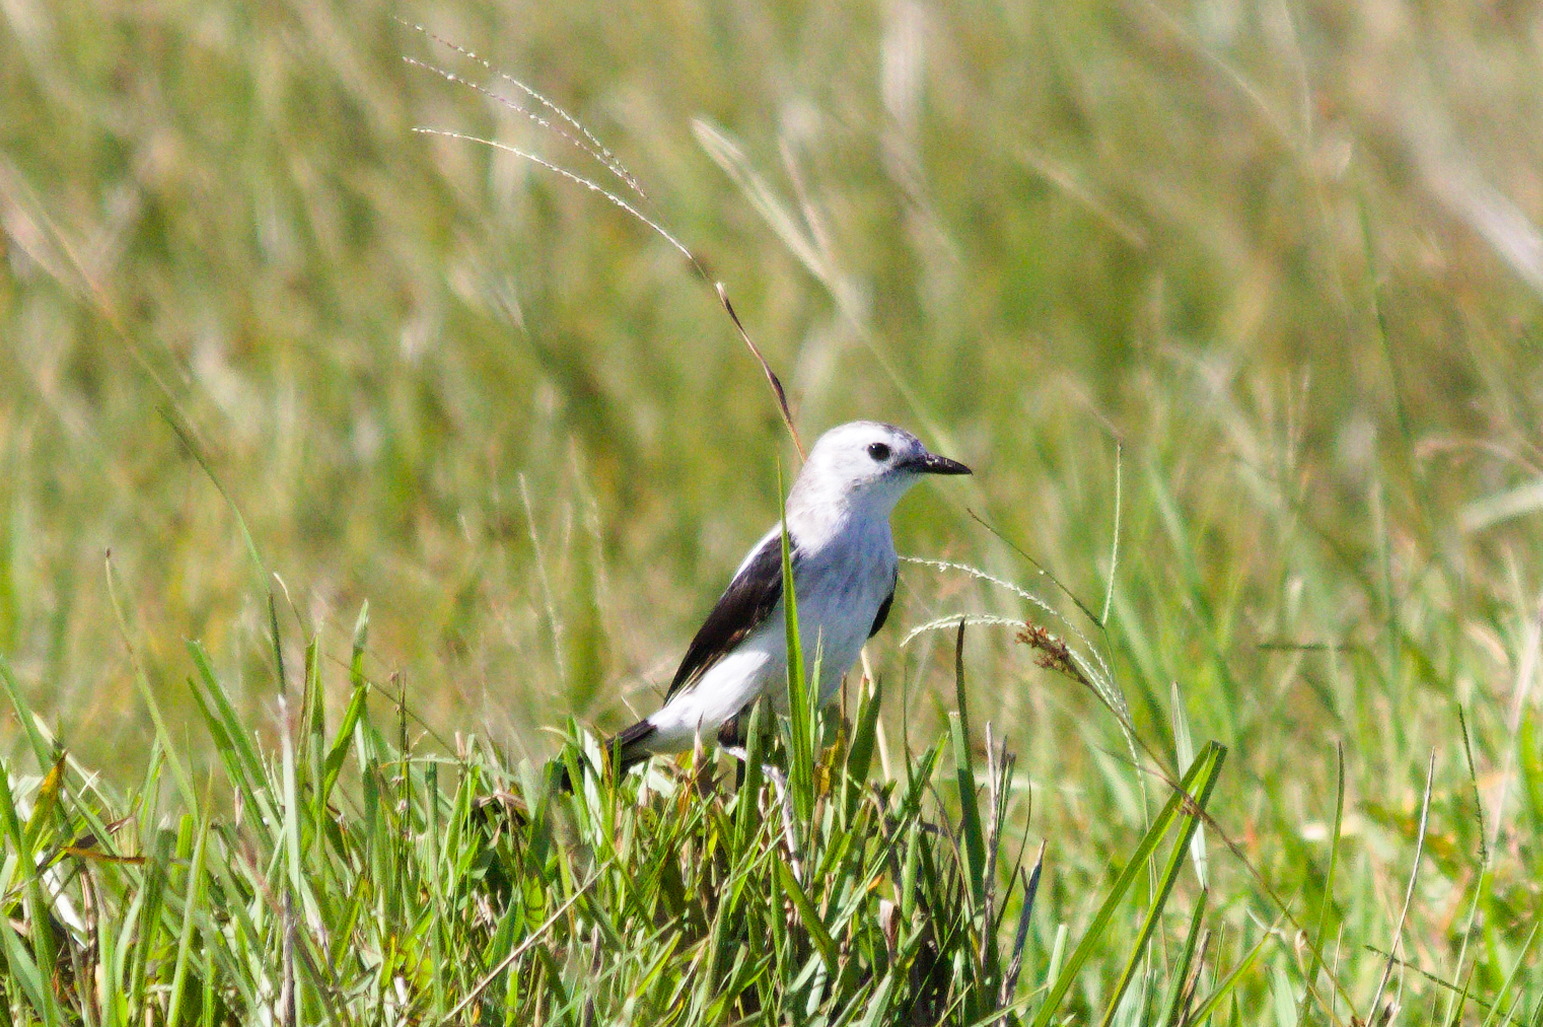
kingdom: Animalia
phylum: Chordata
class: Aves
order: Passeriformes
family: Tyrannidae
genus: Heteroxolmis
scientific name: Heteroxolmis dominicana
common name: Black-and-white monjita
